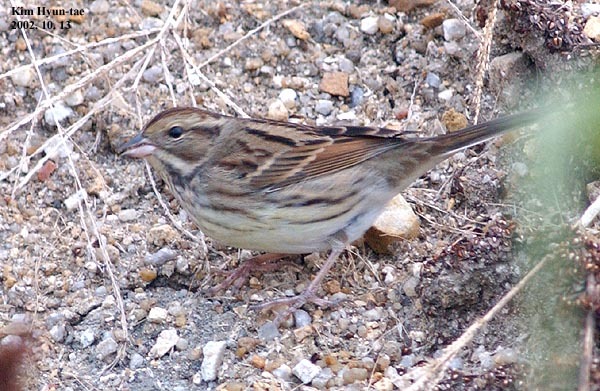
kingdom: Animalia
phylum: Chordata
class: Aves
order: Passeriformes
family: Emberizidae
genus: Emberiza
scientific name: Emberiza spodocephala
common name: Black-faced bunting
